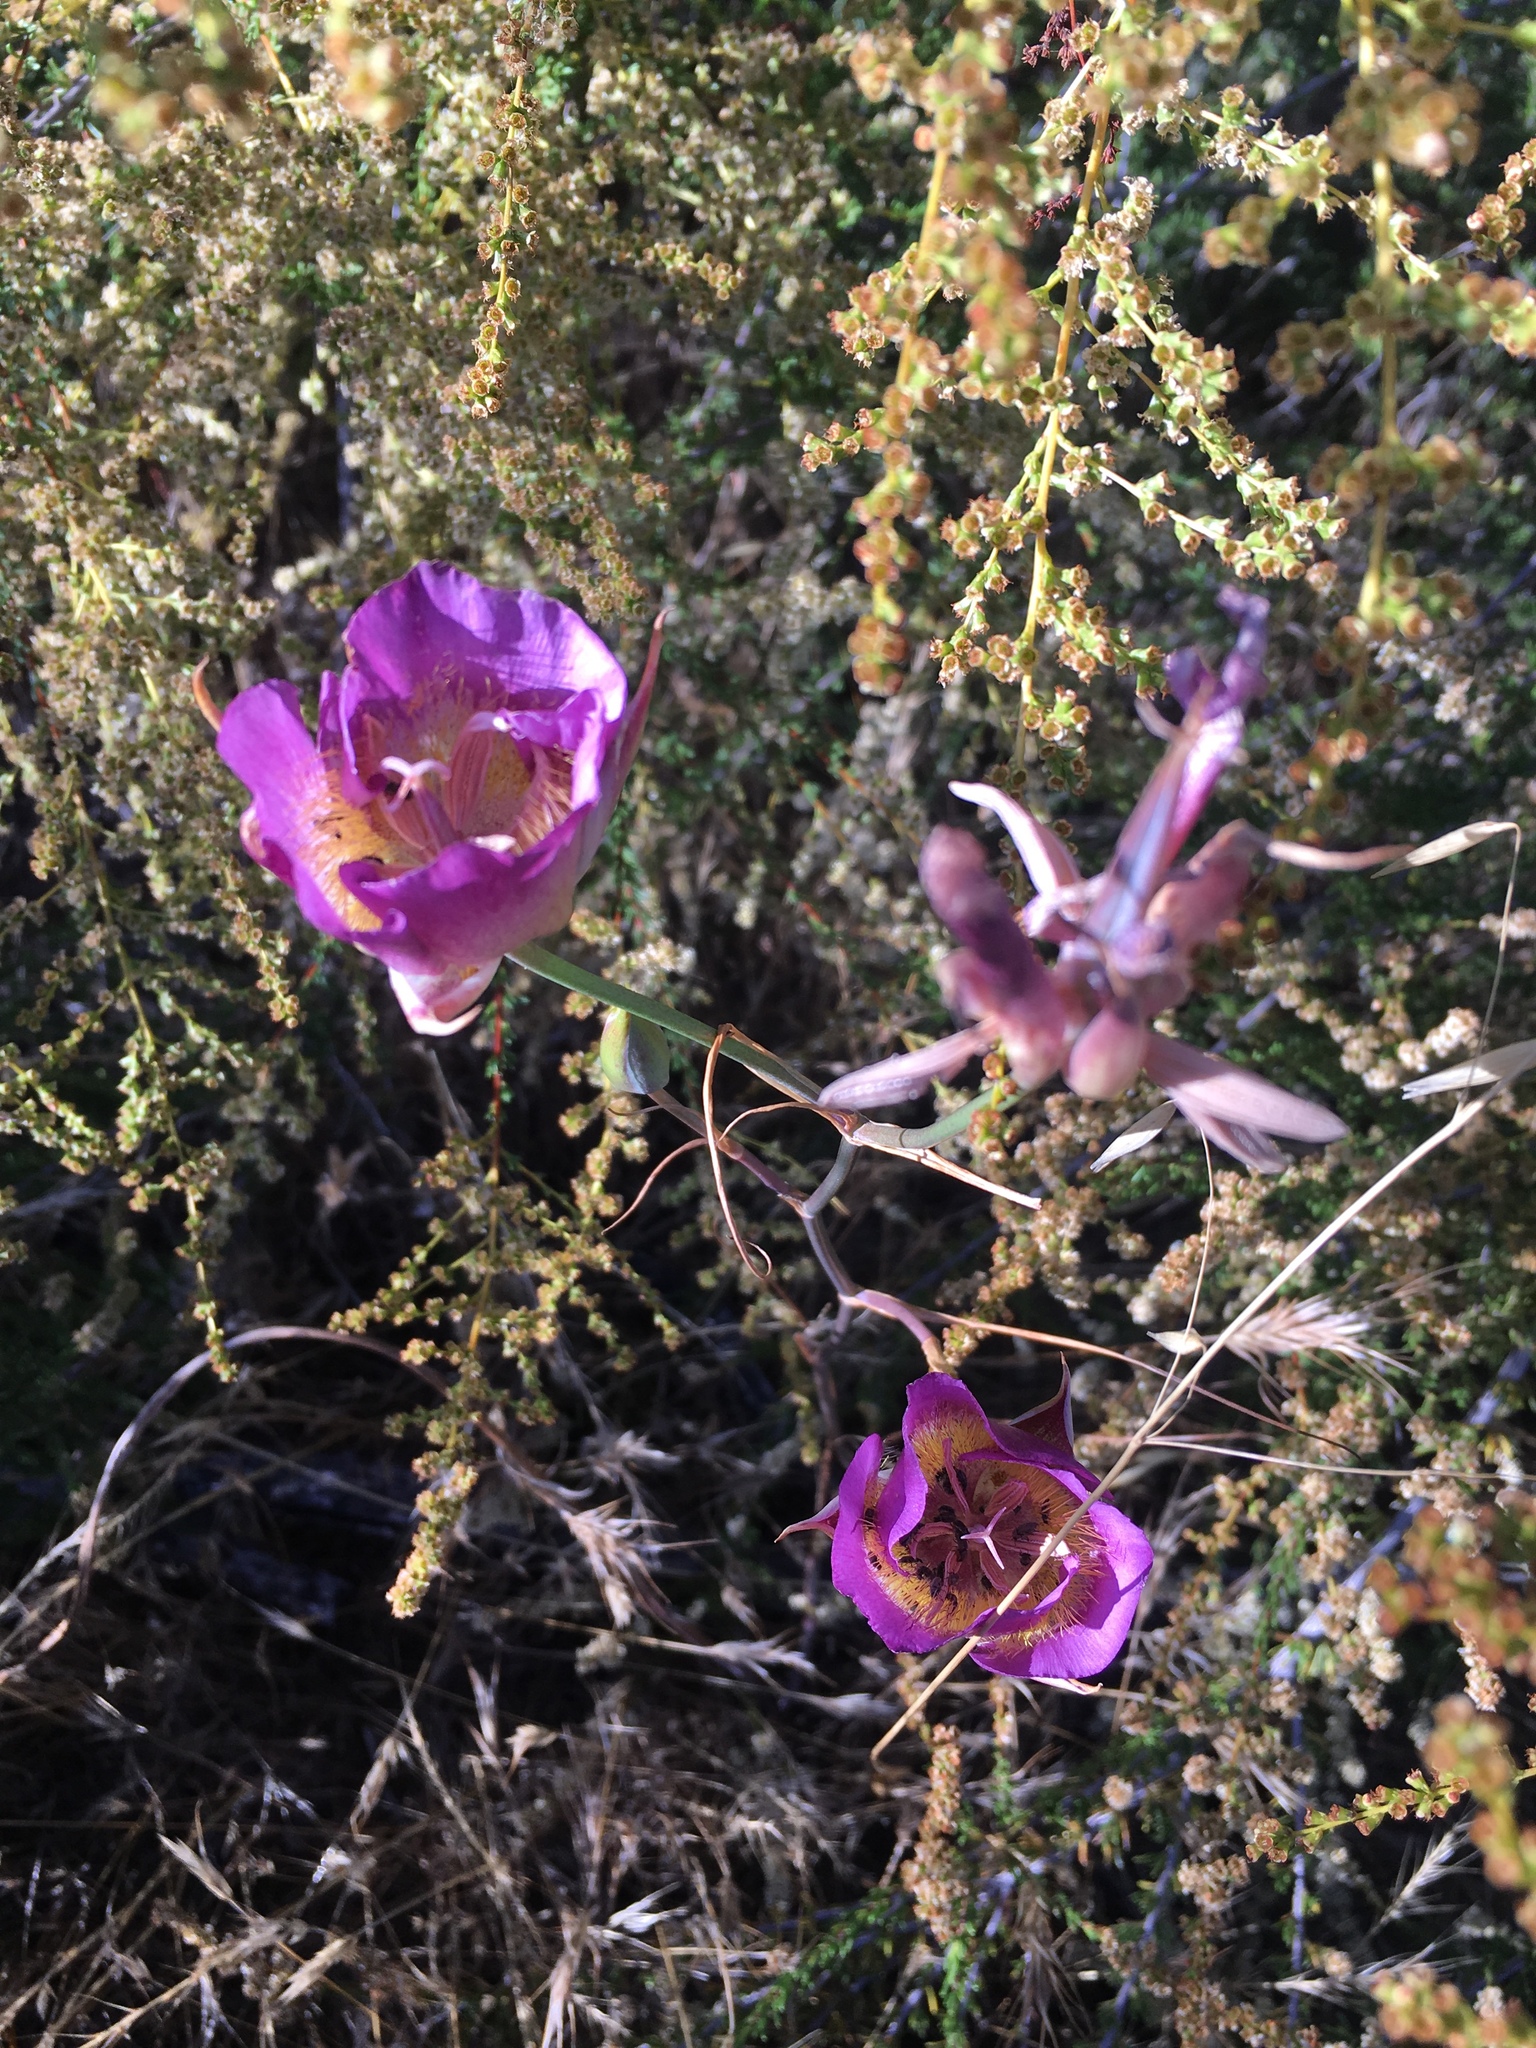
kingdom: Plantae
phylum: Tracheophyta
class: Liliopsida
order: Liliales
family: Liliaceae
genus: Calochortus
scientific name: Calochortus plummerae
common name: Plummer's mariposa-lily
